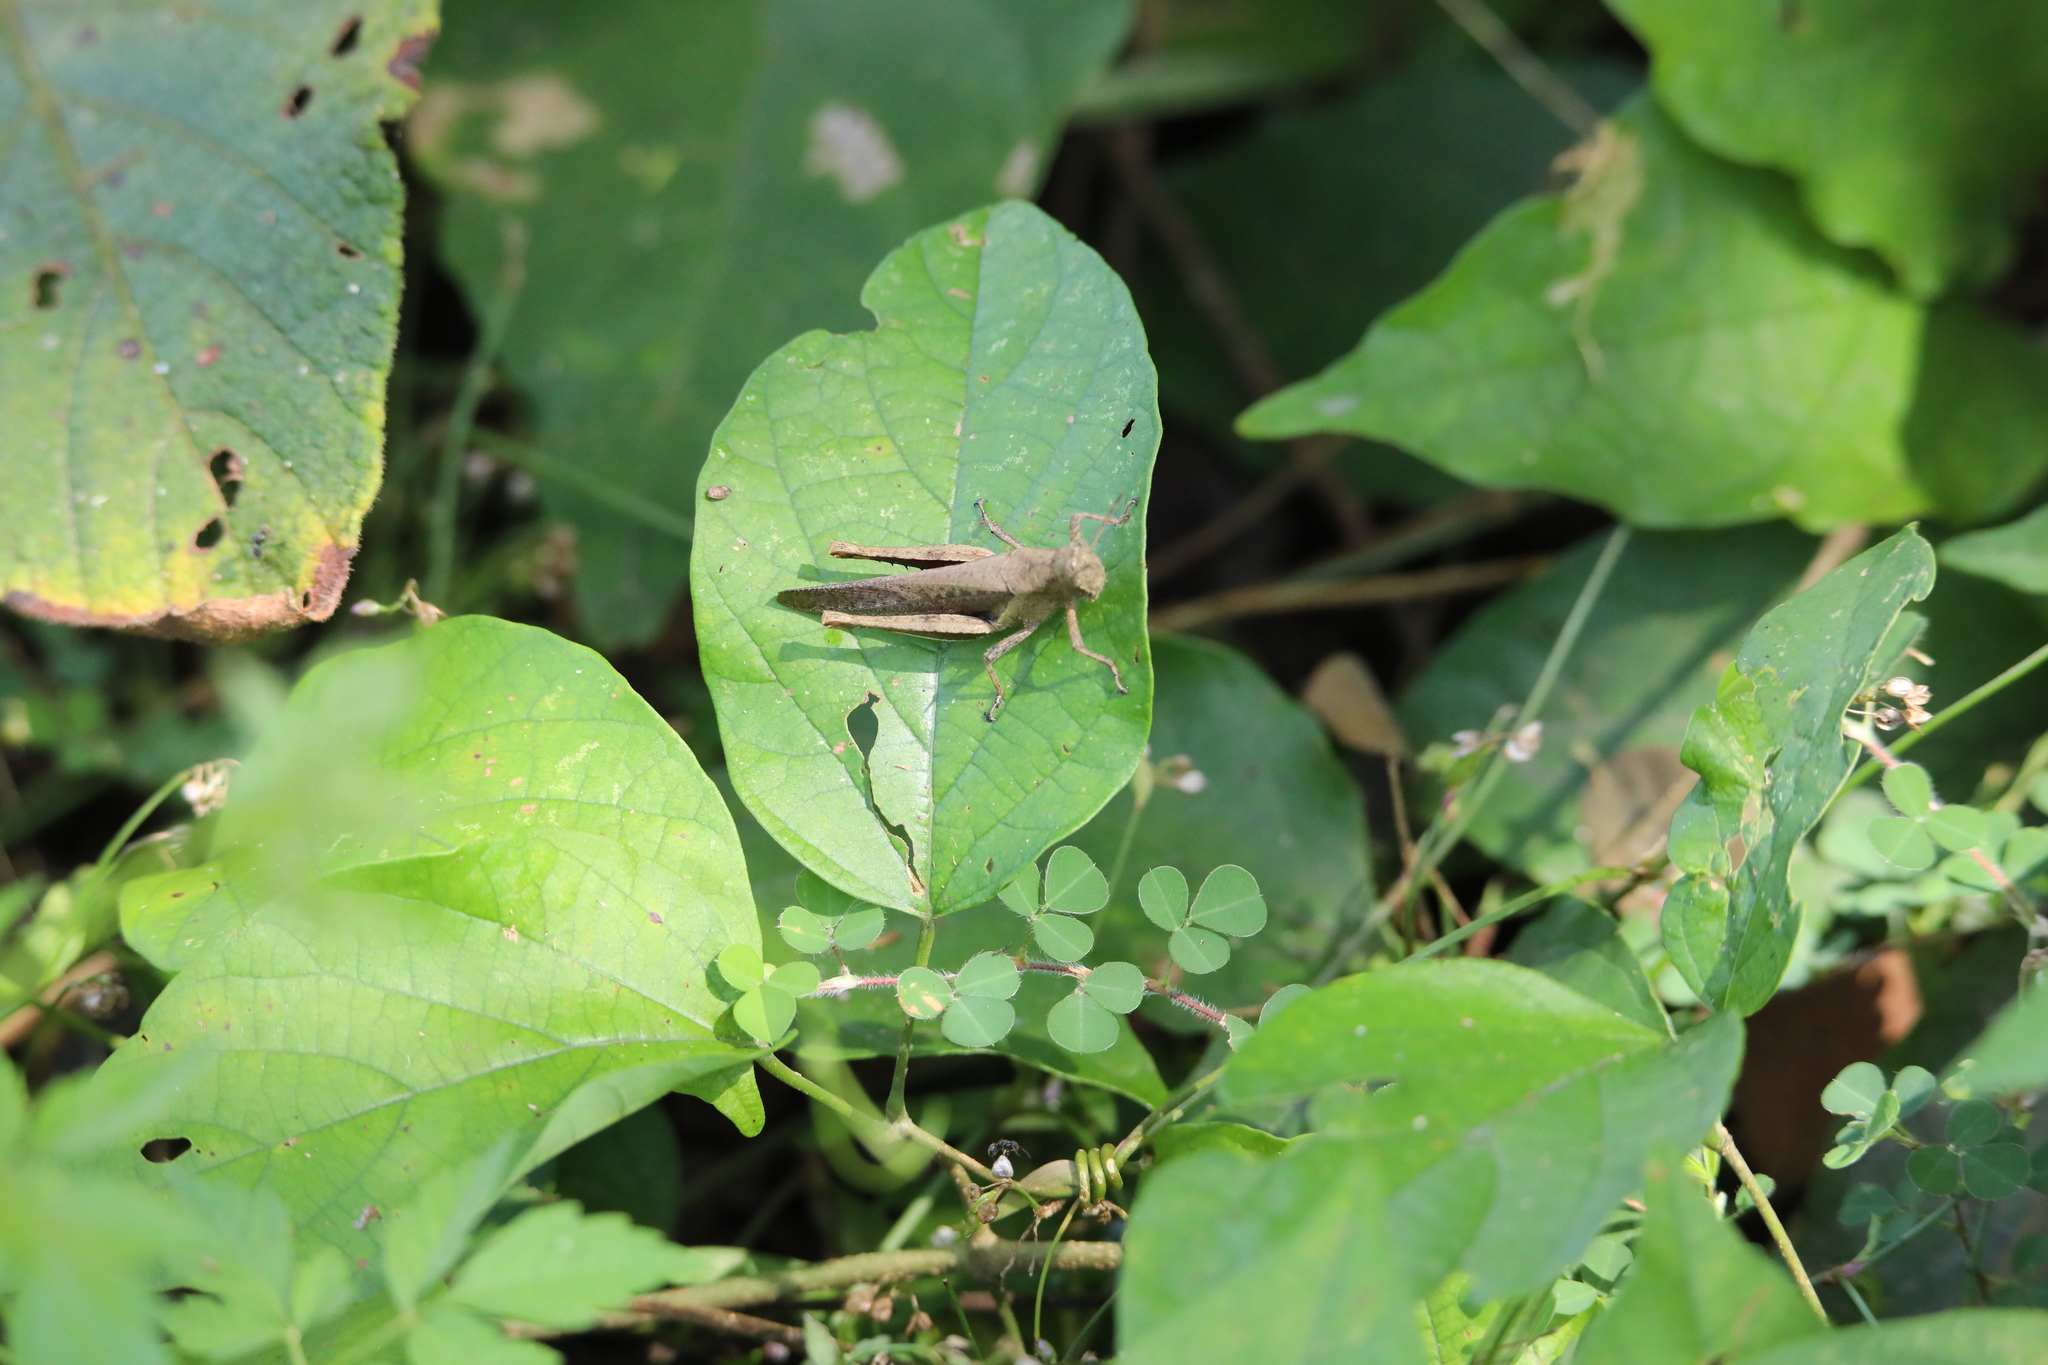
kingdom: Animalia
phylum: Arthropoda
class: Insecta
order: Orthoptera
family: Acrididae
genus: Abracris
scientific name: Abracris flavolineata
